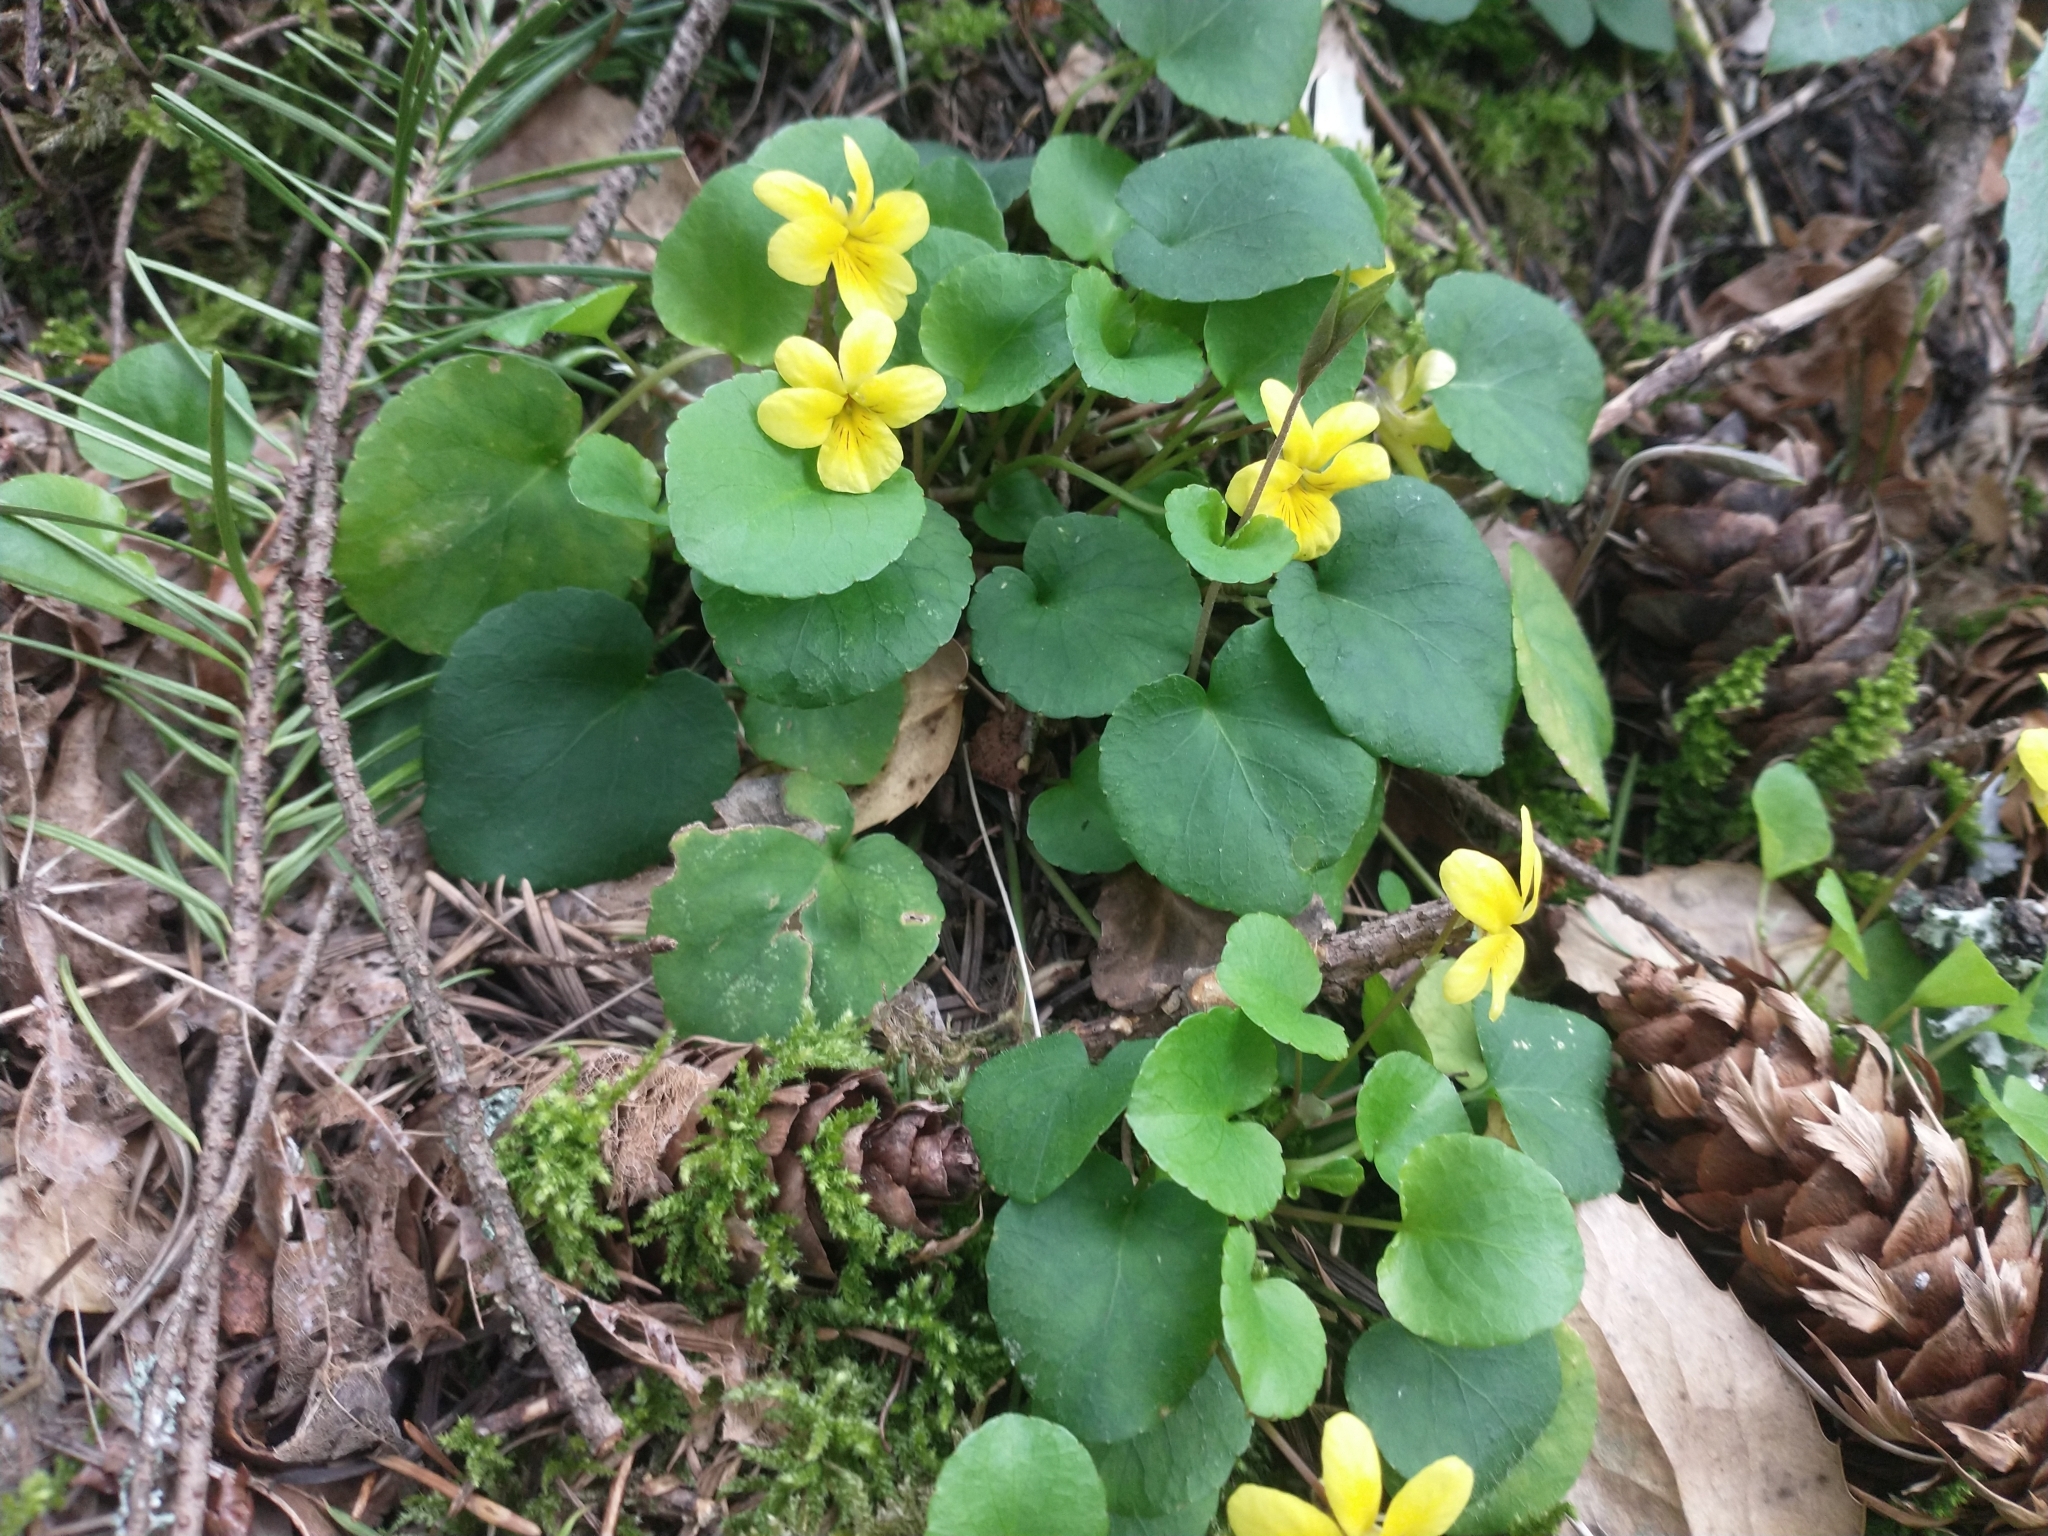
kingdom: Plantae
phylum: Tracheophyta
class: Magnoliopsida
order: Malpighiales
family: Violaceae
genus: Viola
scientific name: Viola sempervirens
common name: Evergreen violet
